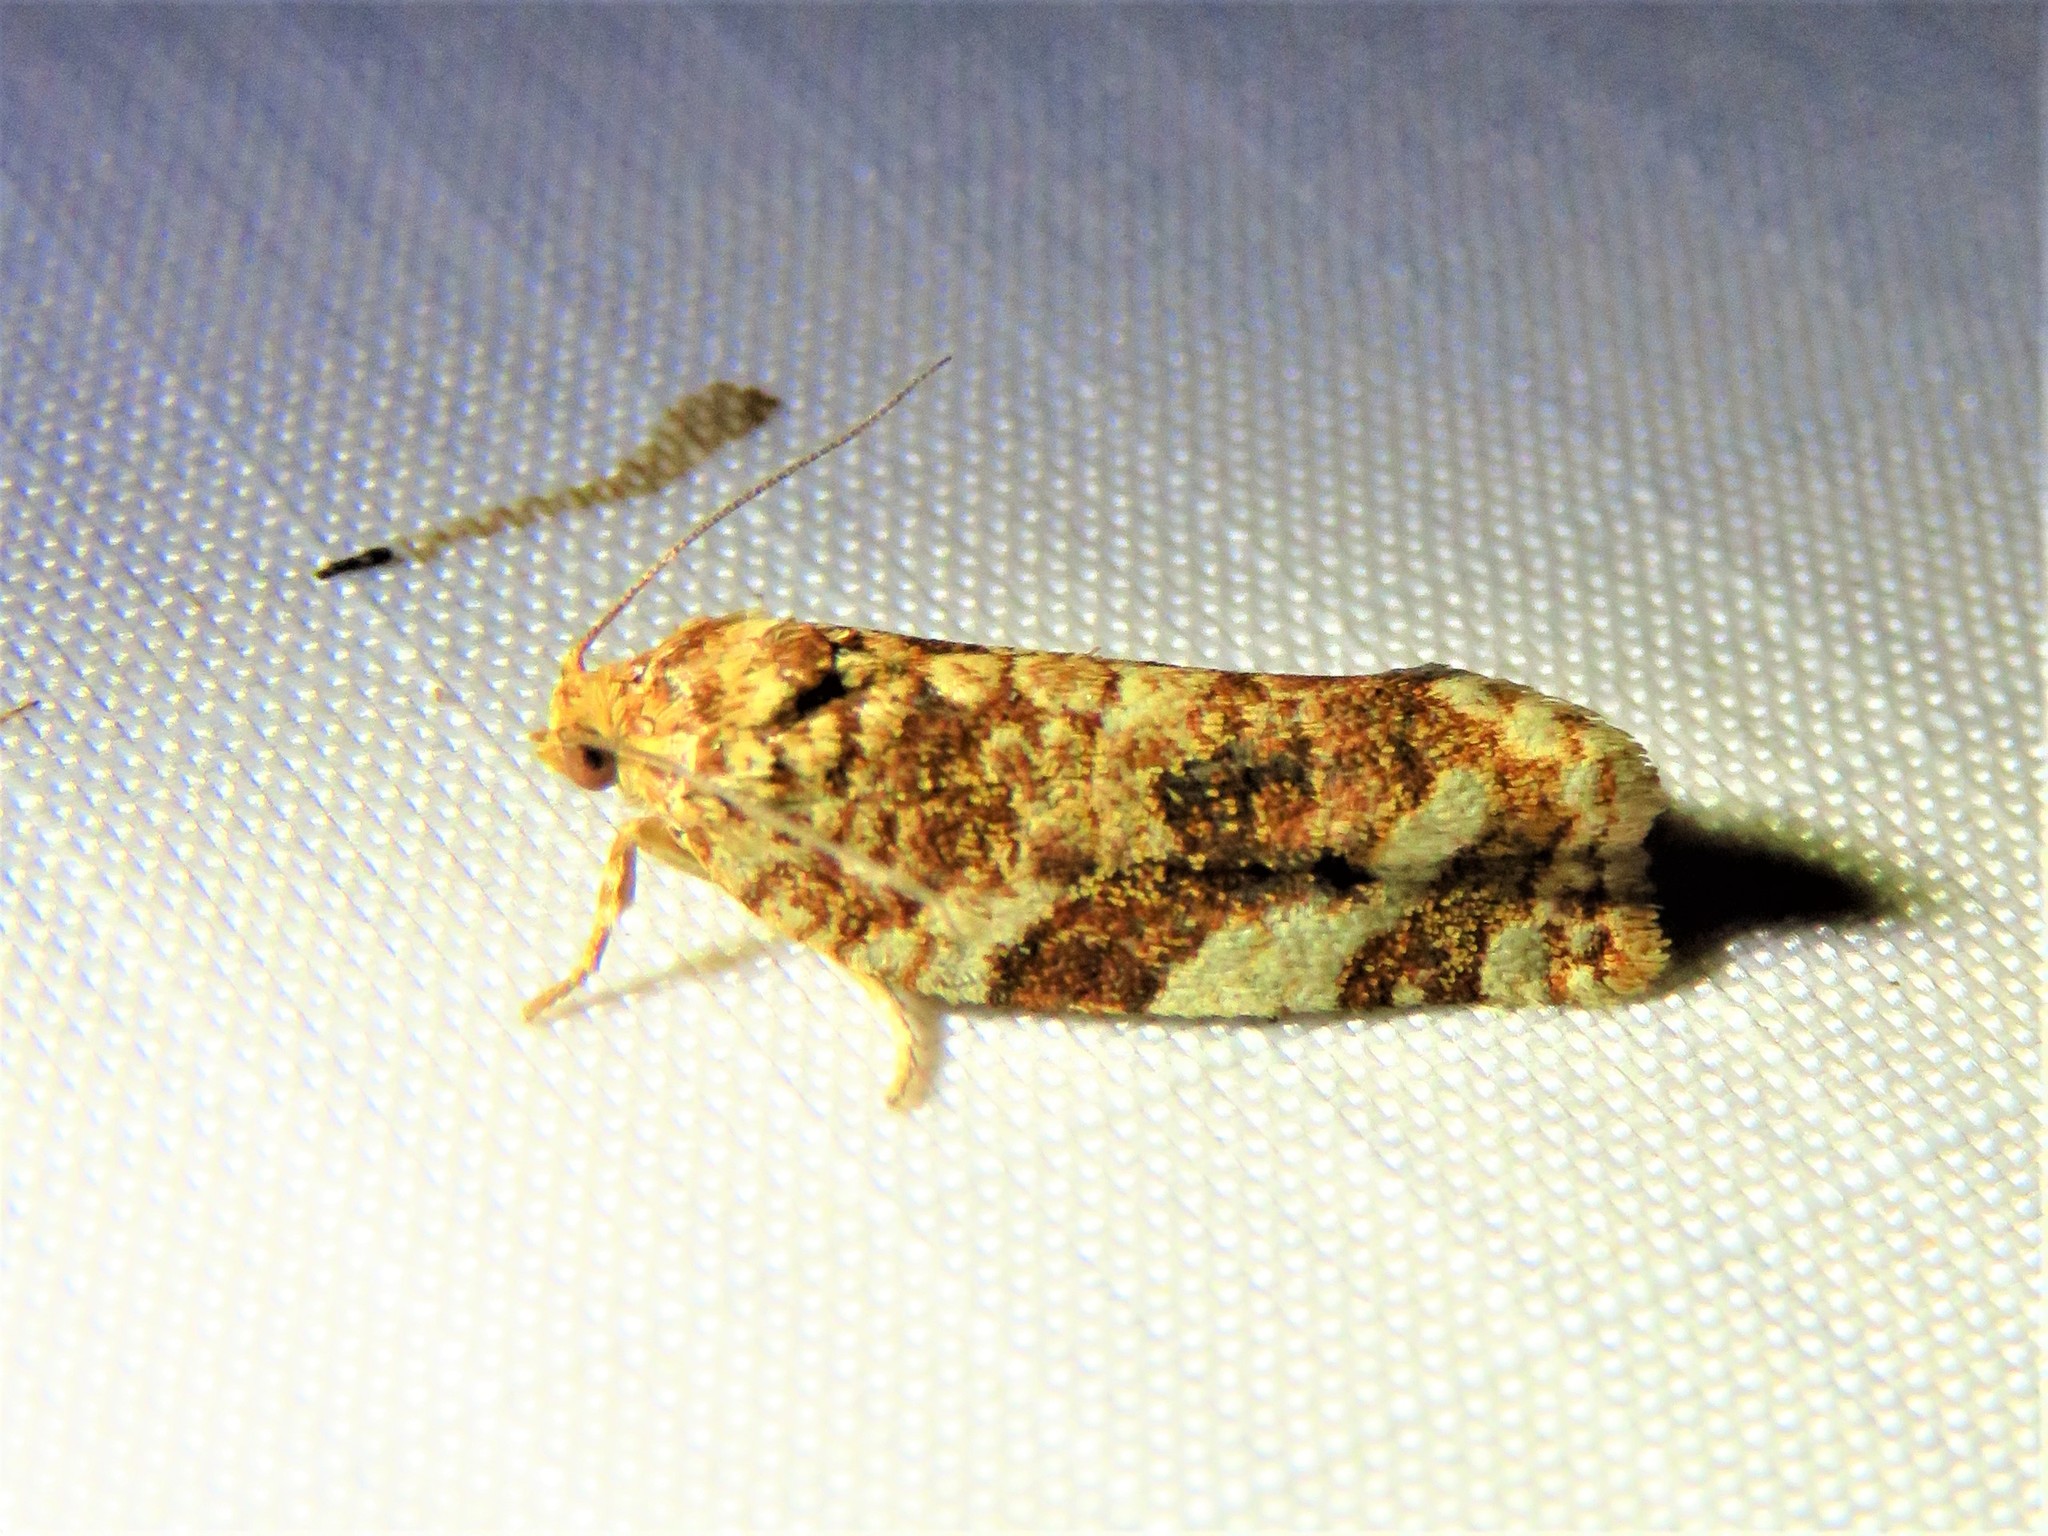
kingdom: Animalia
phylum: Arthropoda
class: Insecta
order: Lepidoptera
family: Tortricidae
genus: Archips
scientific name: Archips argyrospila
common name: Fruit-tree leafroller moth
